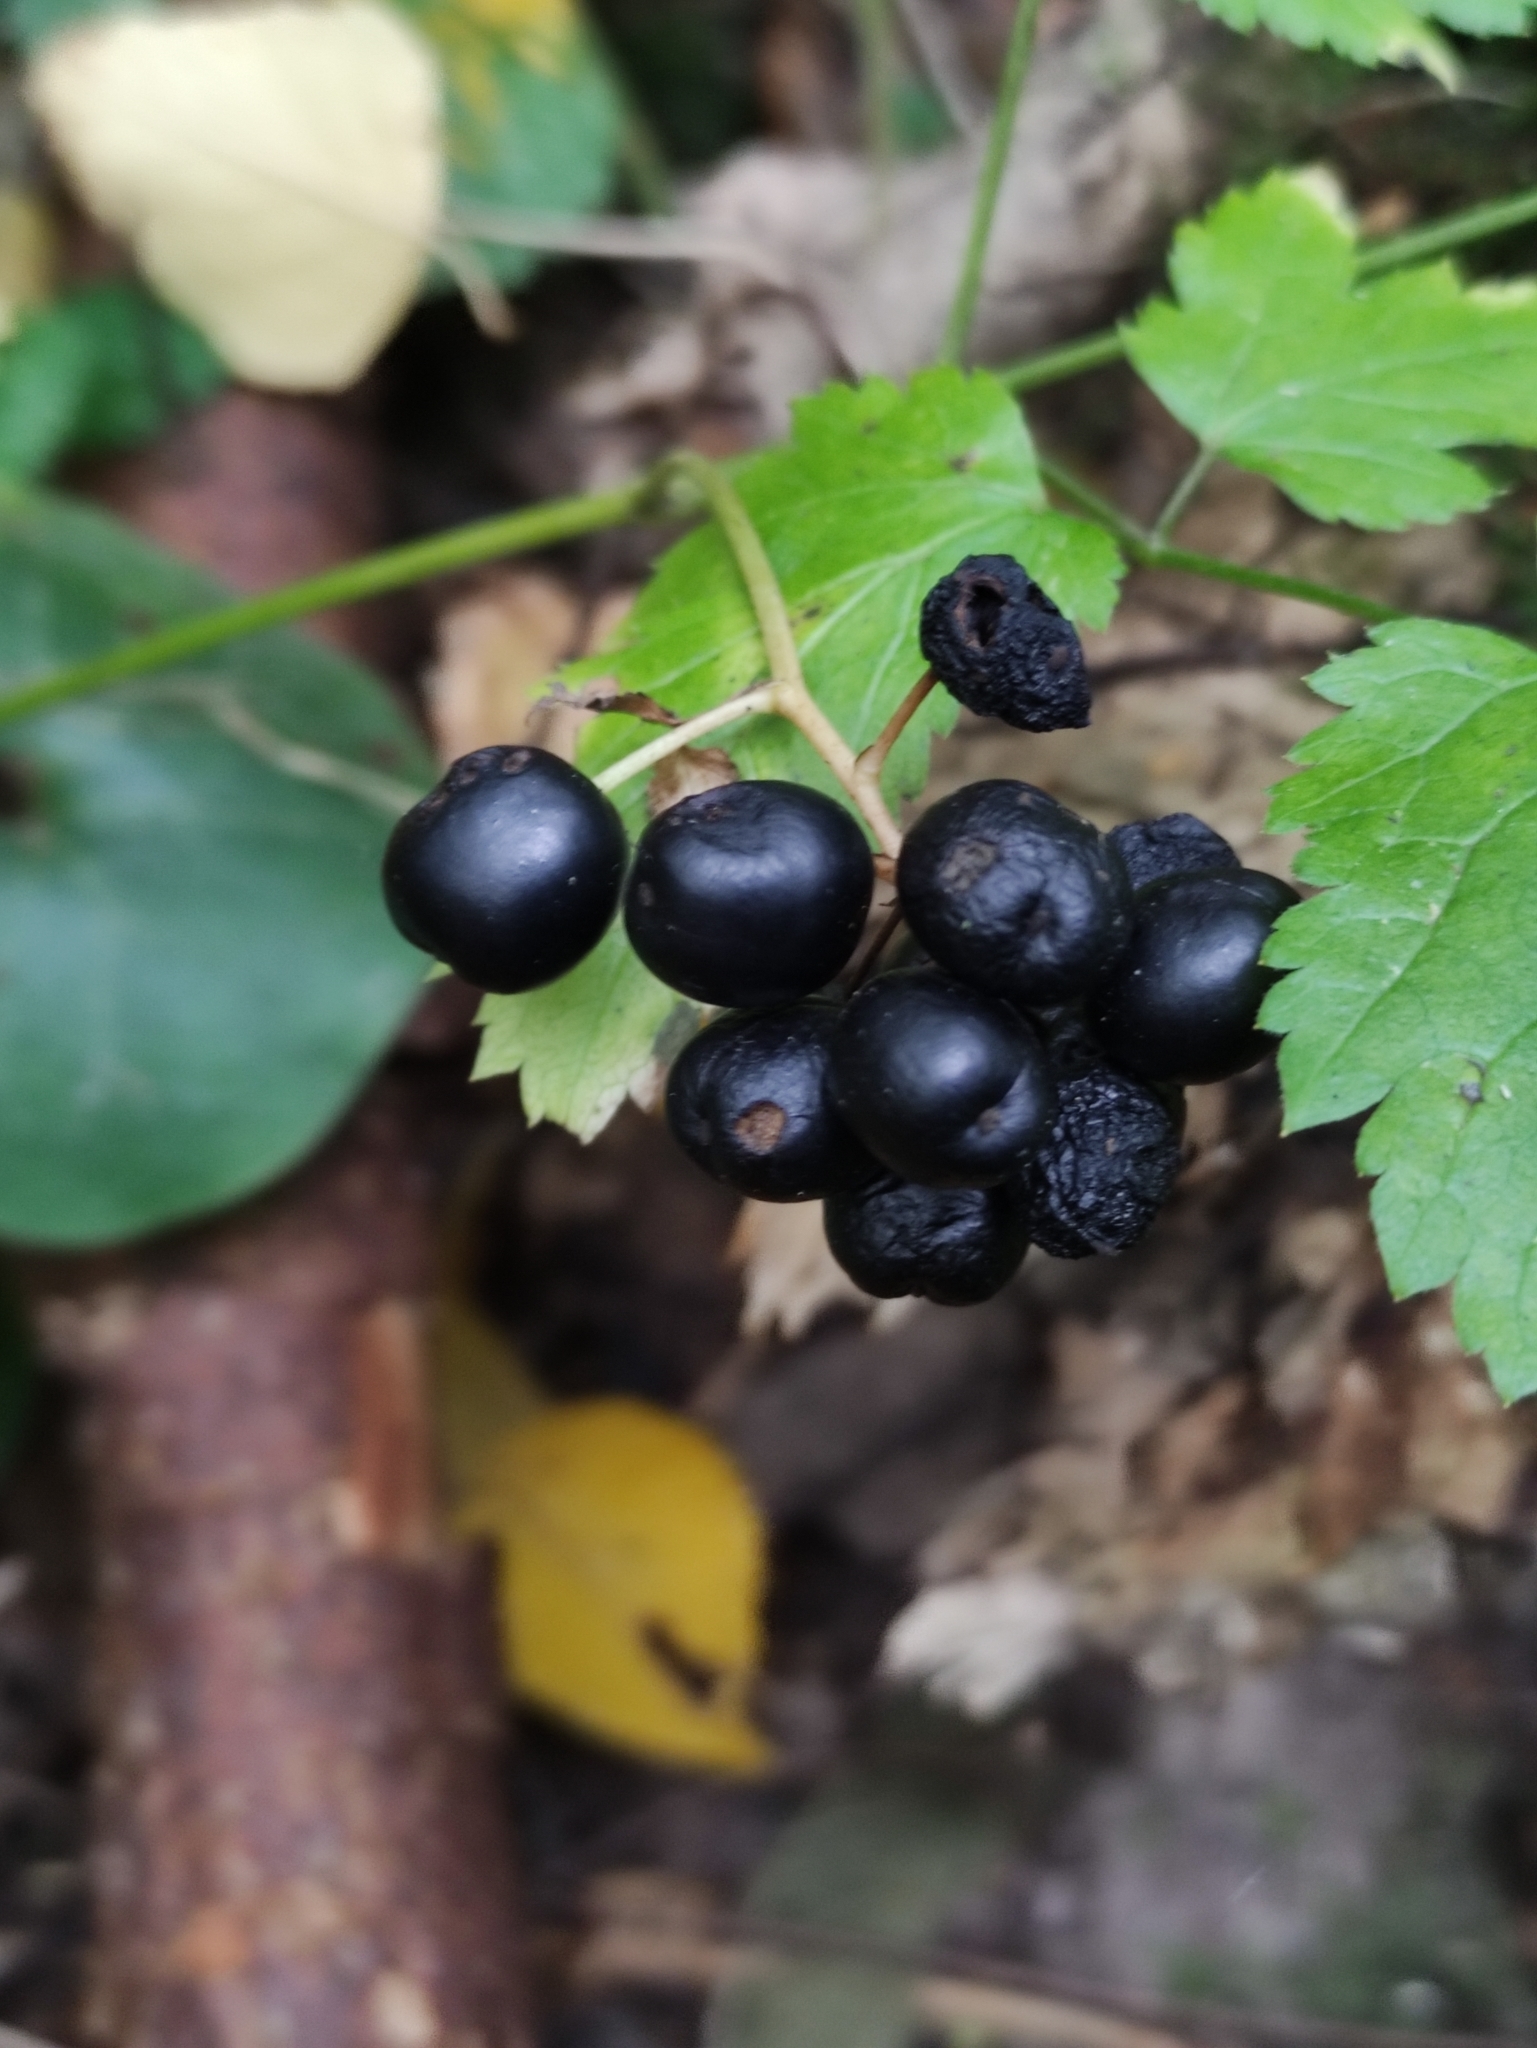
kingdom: Plantae
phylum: Tracheophyta
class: Magnoliopsida
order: Ranunculales
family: Ranunculaceae
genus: Actaea
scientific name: Actaea spicata
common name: Baneberry
